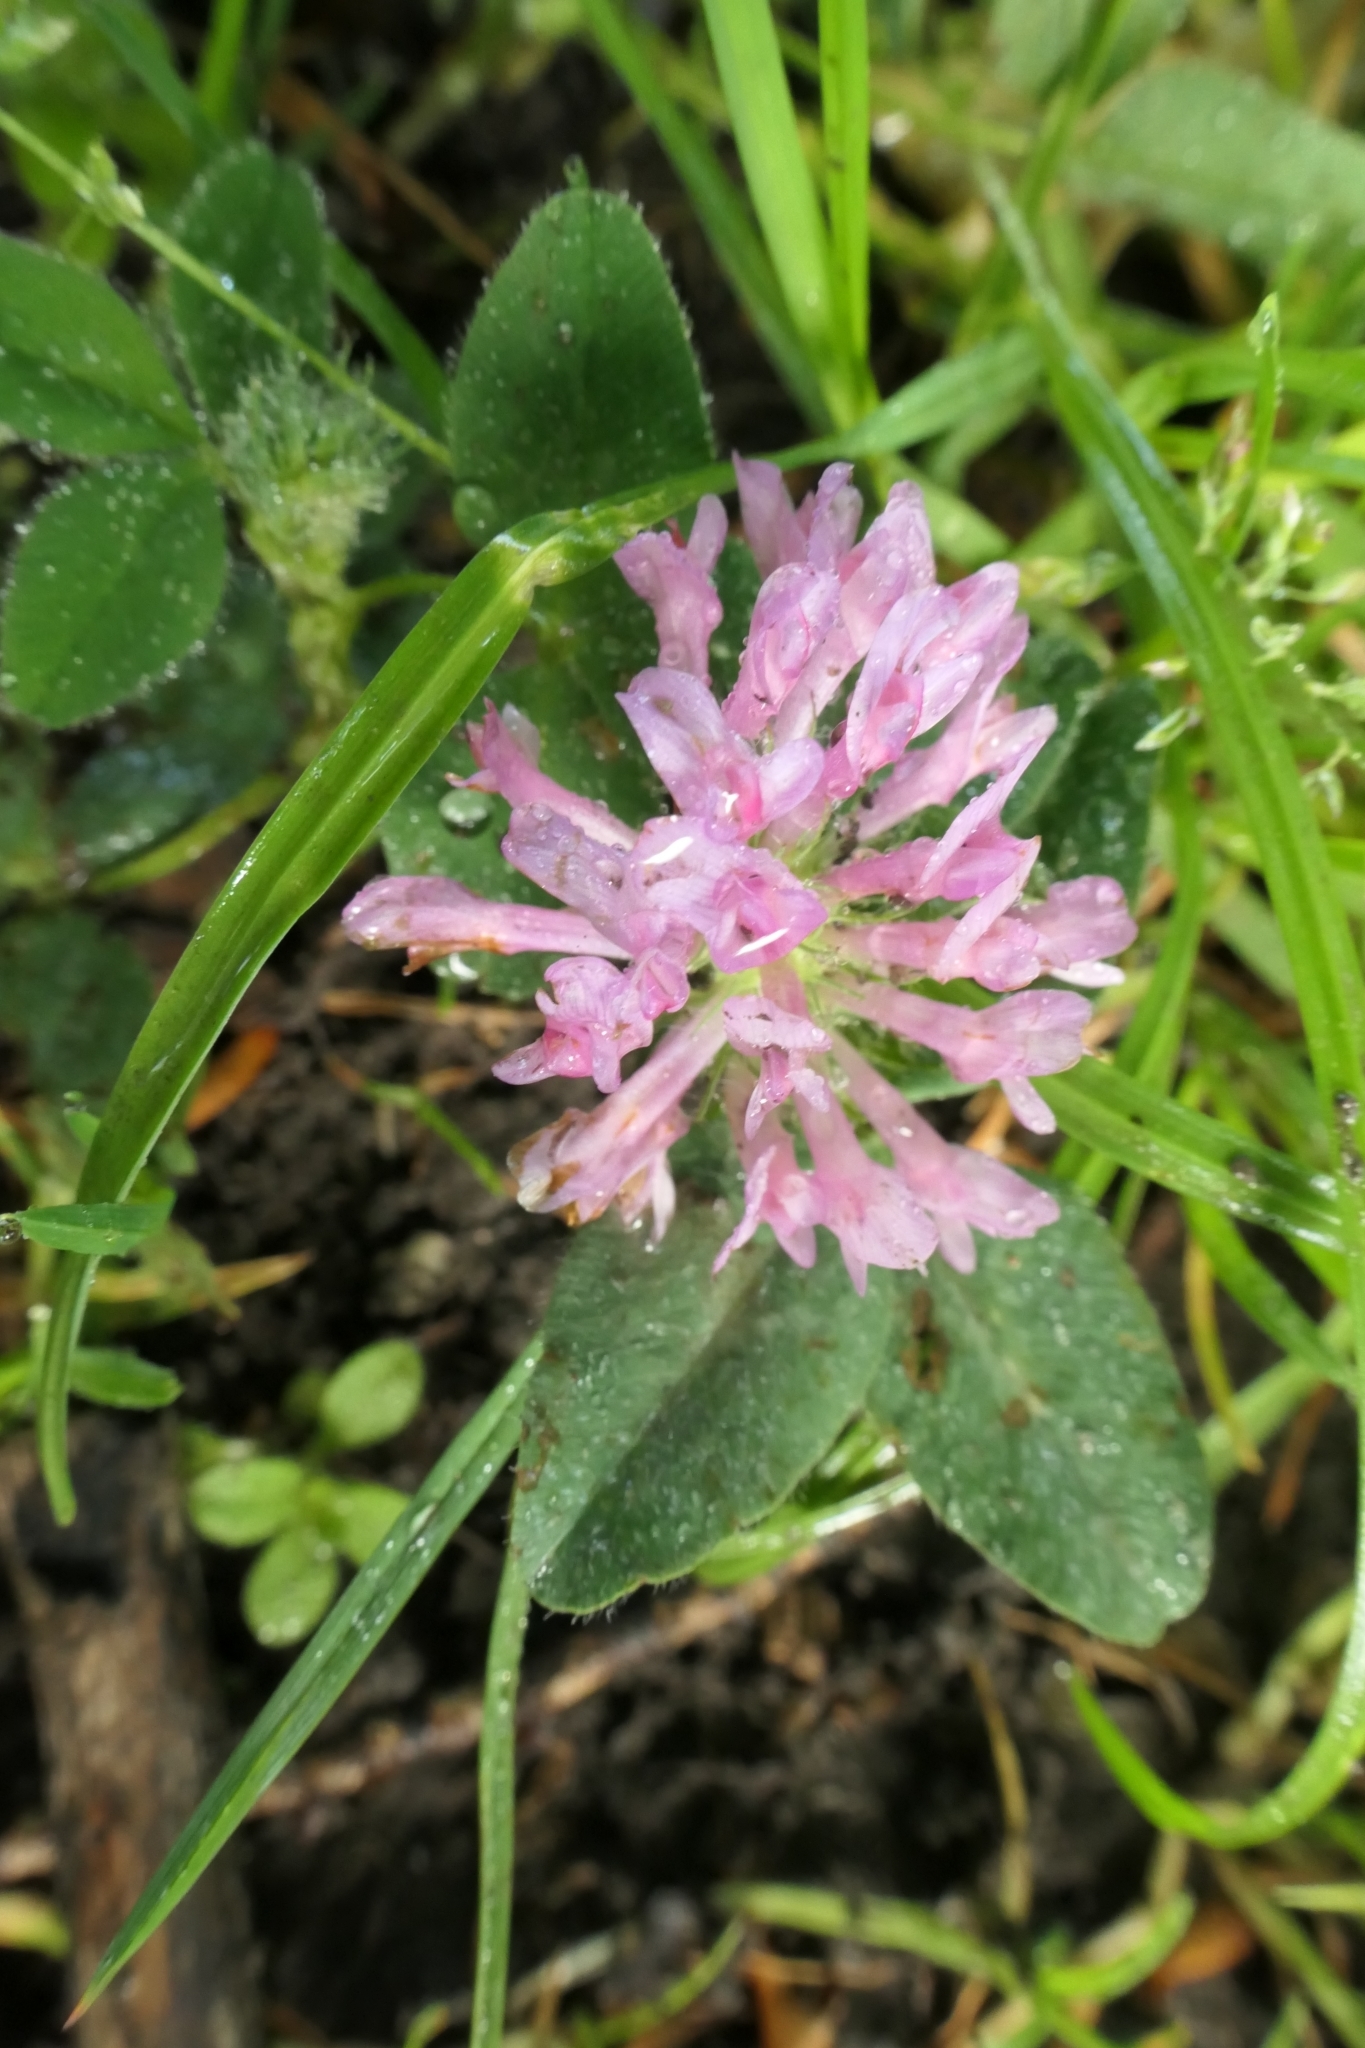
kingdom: Plantae
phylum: Tracheophyta
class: Magnoliopsida
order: Fabales
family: Fabaceae
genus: Trifolium
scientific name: Trifolium pratense
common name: Red clover
